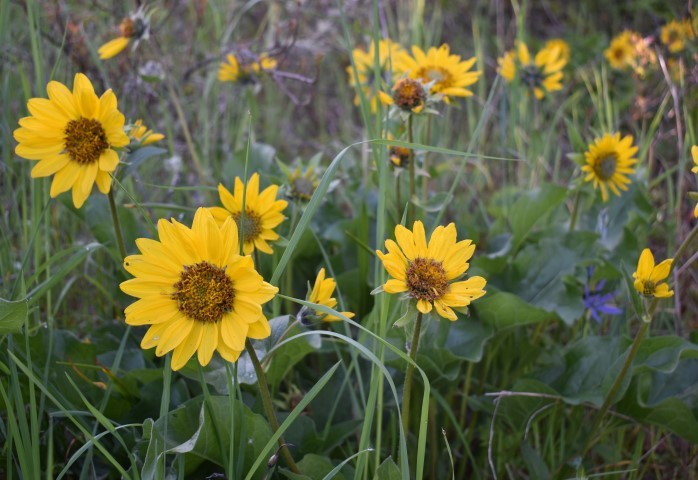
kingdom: Plantae
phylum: Tracheophyta
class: Magnoliopsida
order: Asterales
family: Asteraceae
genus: Balsamorhiza
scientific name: Balsamorhiza deltoidea
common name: Deltoid balsamroot
